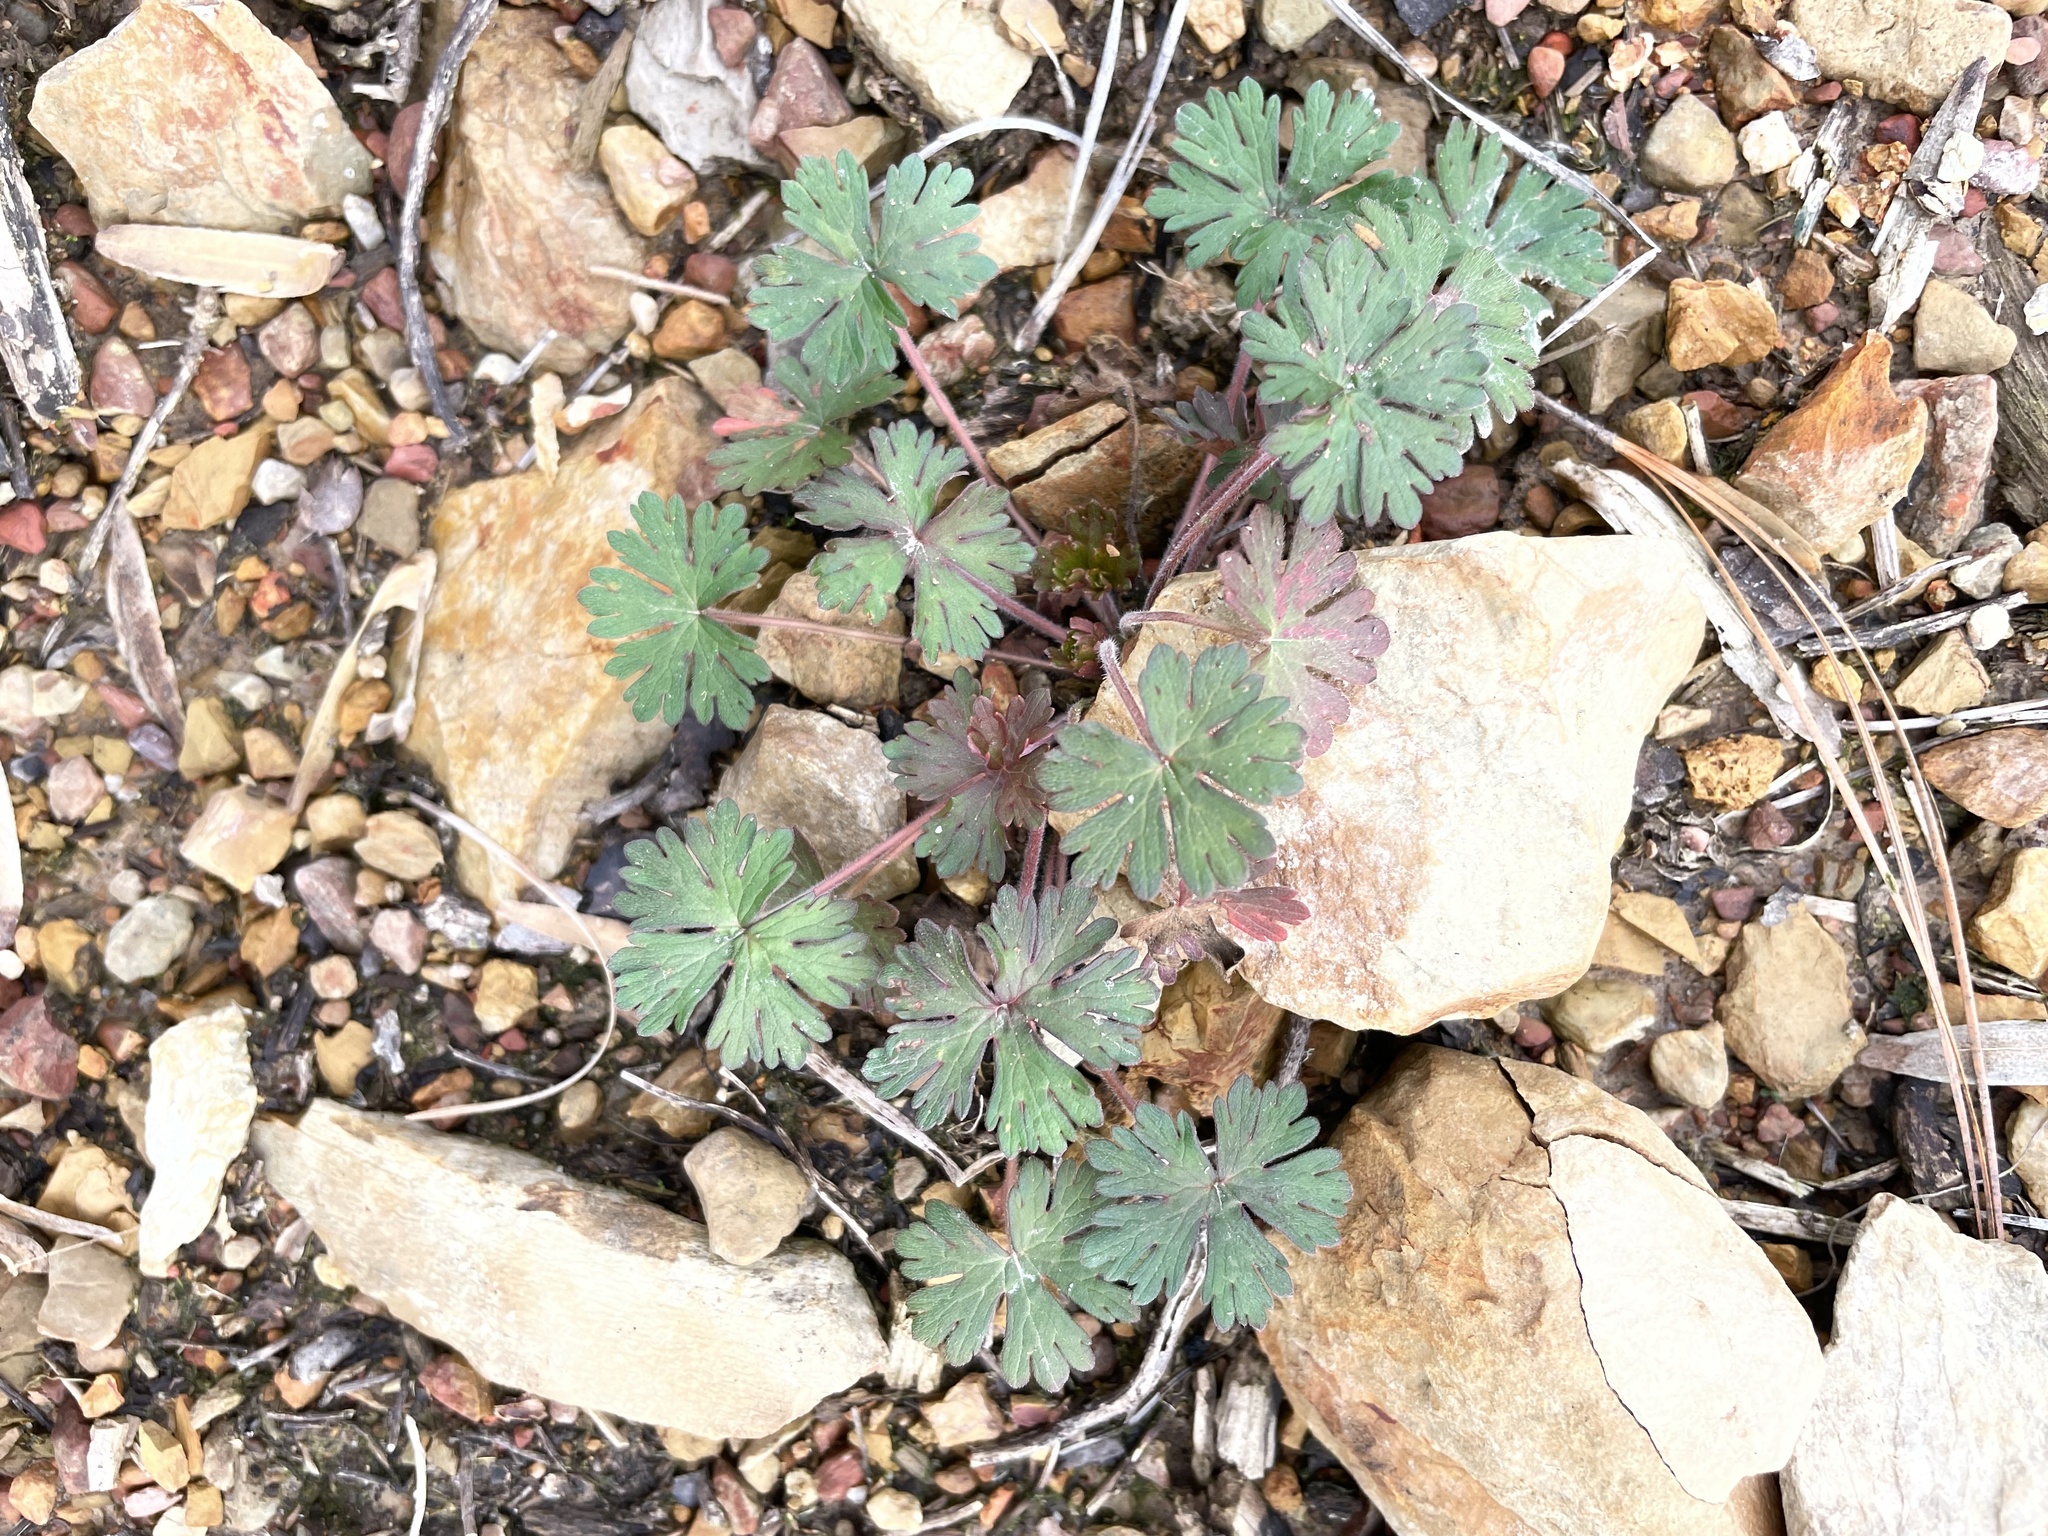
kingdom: Plantae
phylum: Tracheophyta
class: Magnoliopsida
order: Geraniales
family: Geraniaceae
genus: Geranium
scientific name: Geranium carolinianum
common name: Carolina crane's-bill
